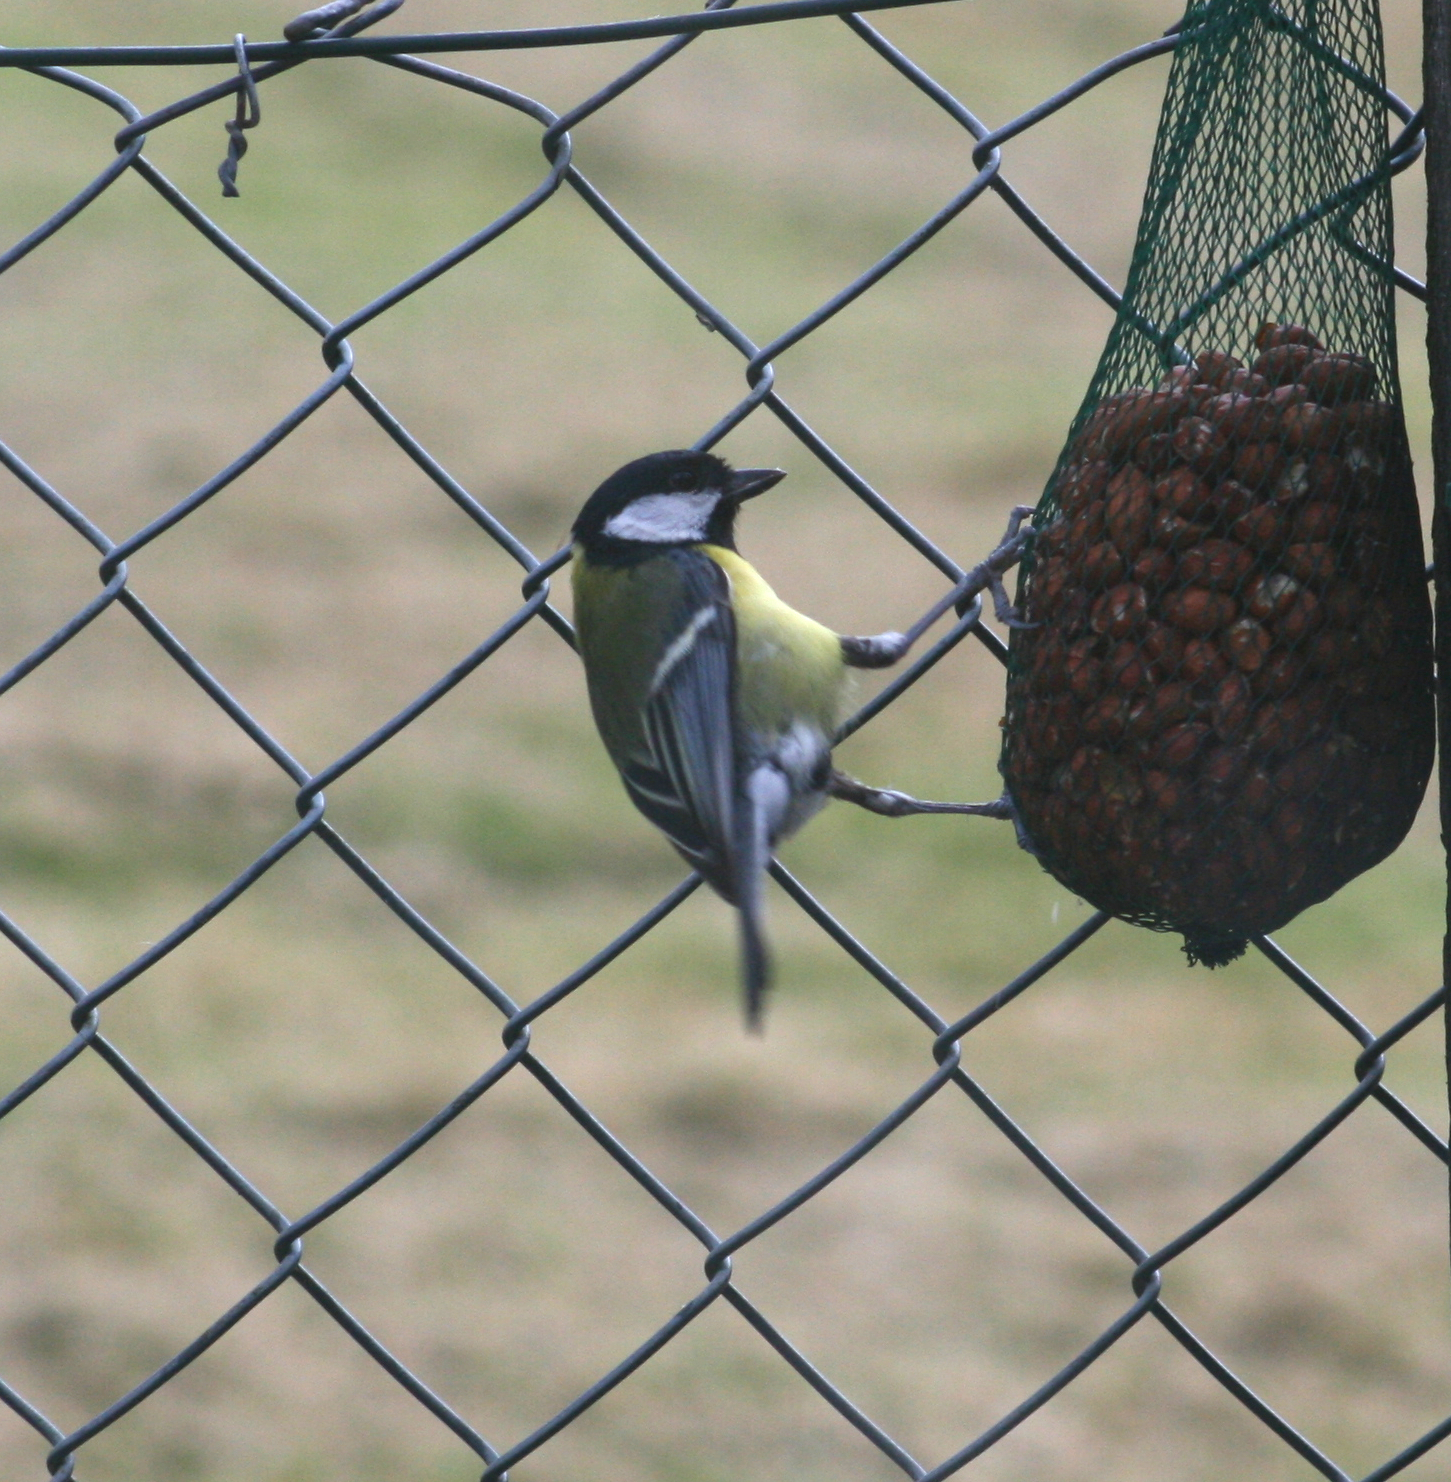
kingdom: Animalia
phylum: Chordata
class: Aves
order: Passeriformes
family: Paridae
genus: Parus
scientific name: Parus major
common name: Great tit
